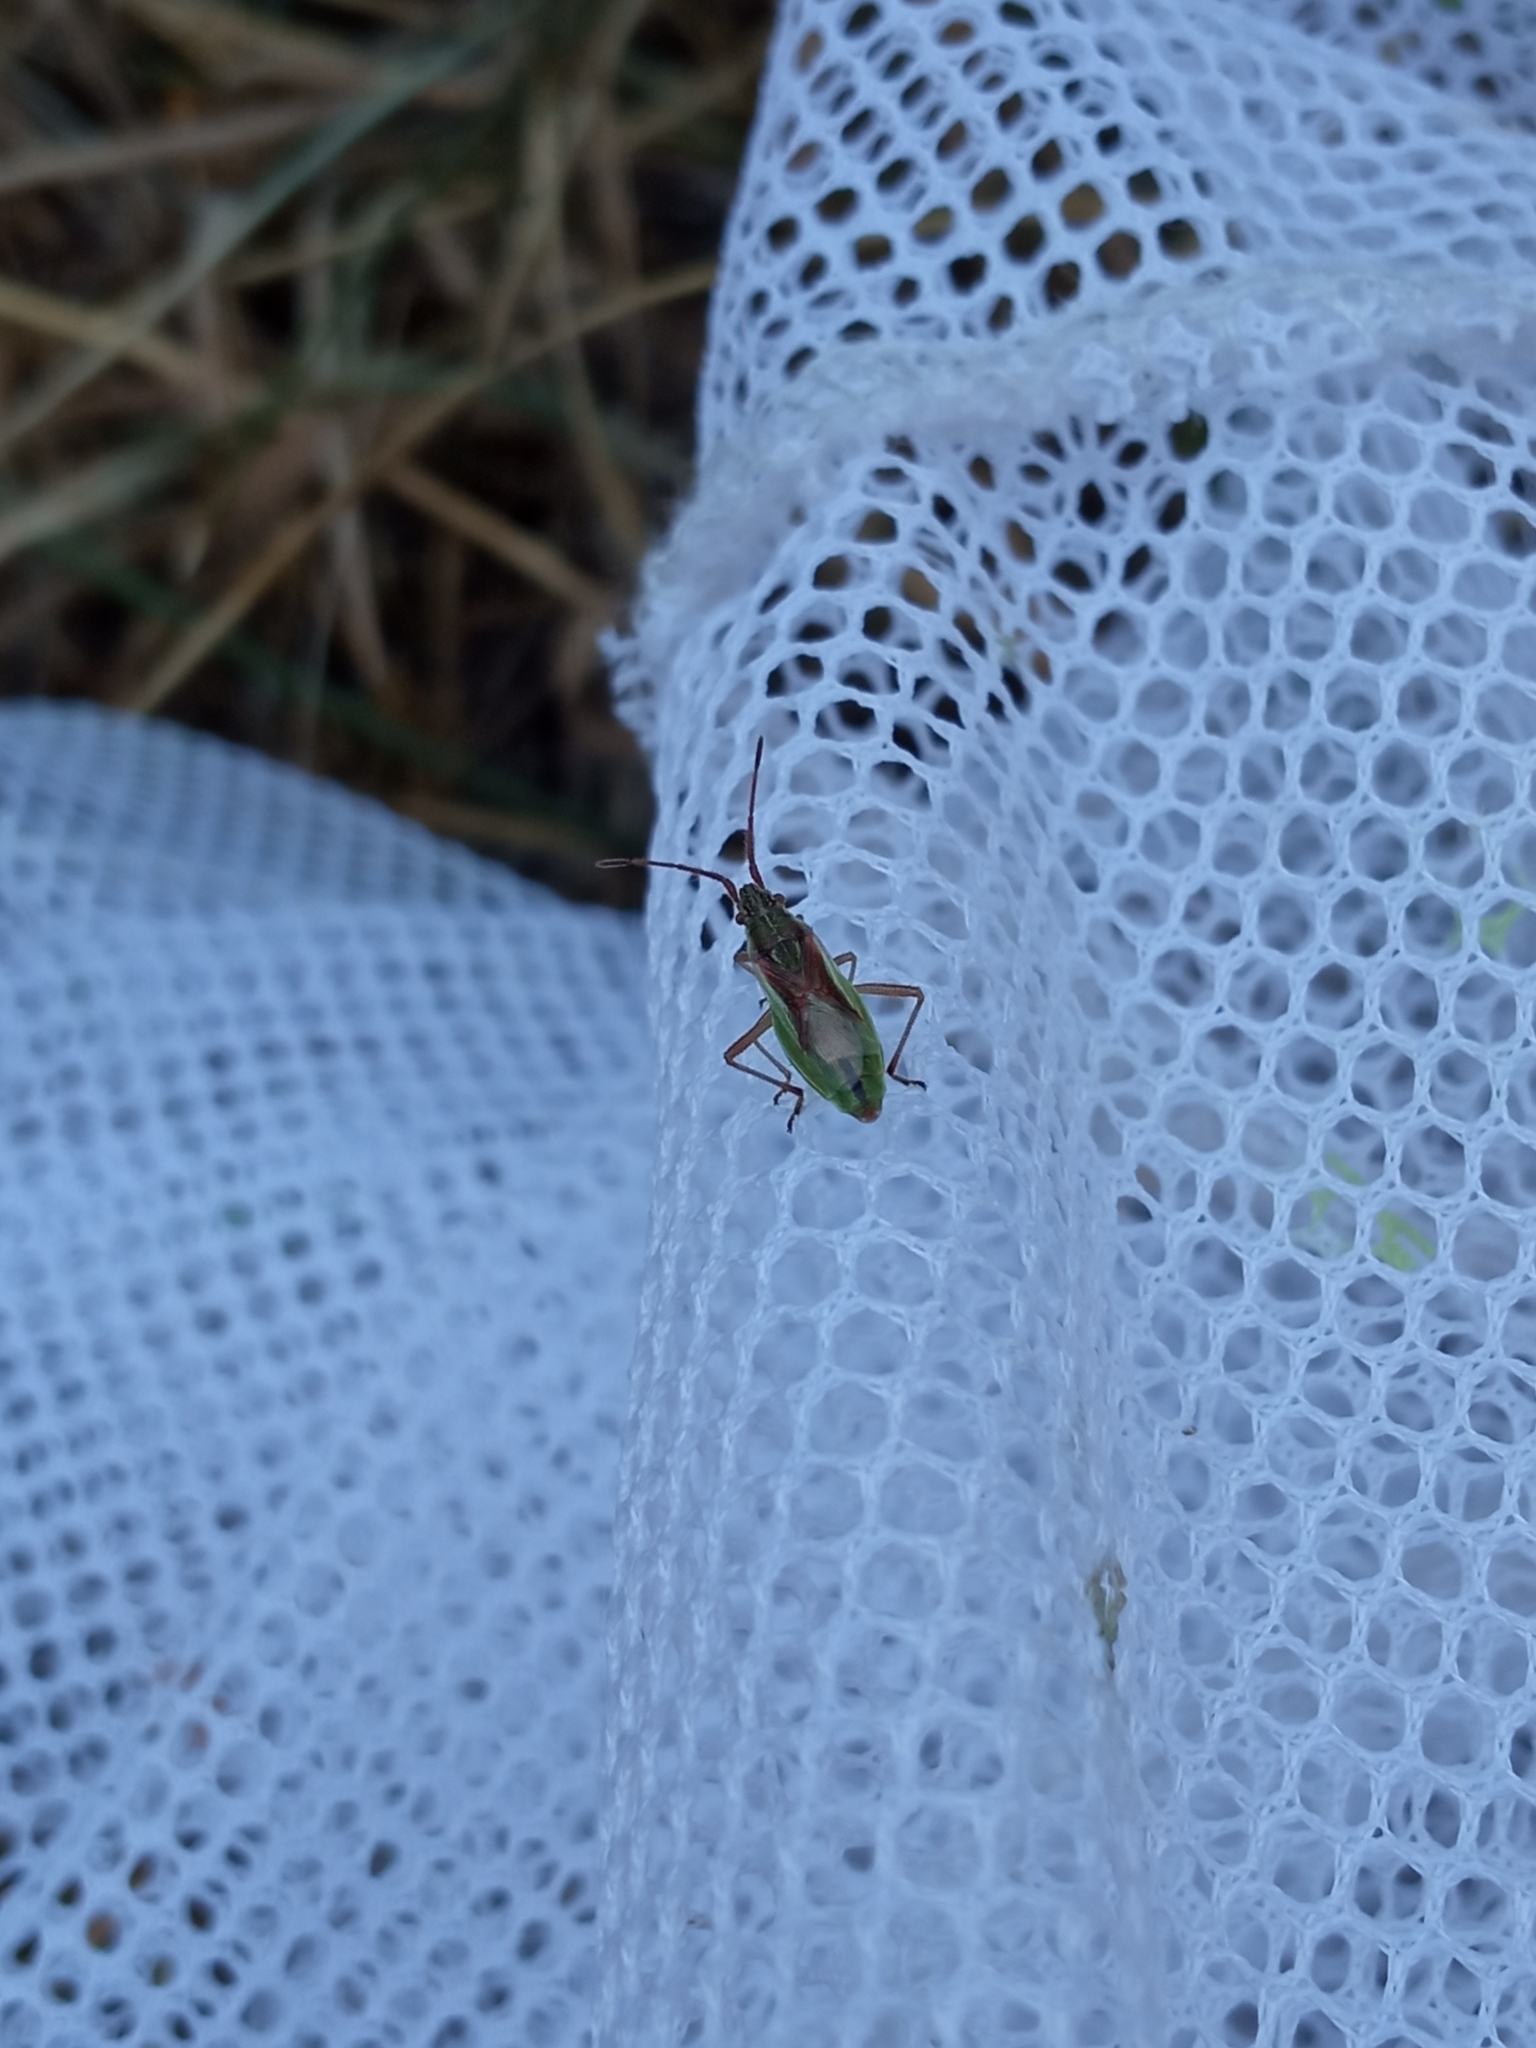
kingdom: Animalia
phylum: Arthropoda
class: Insecta
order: Hemiptera
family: Rhopalidae
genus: Myrmus
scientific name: Myrmus miriformis
